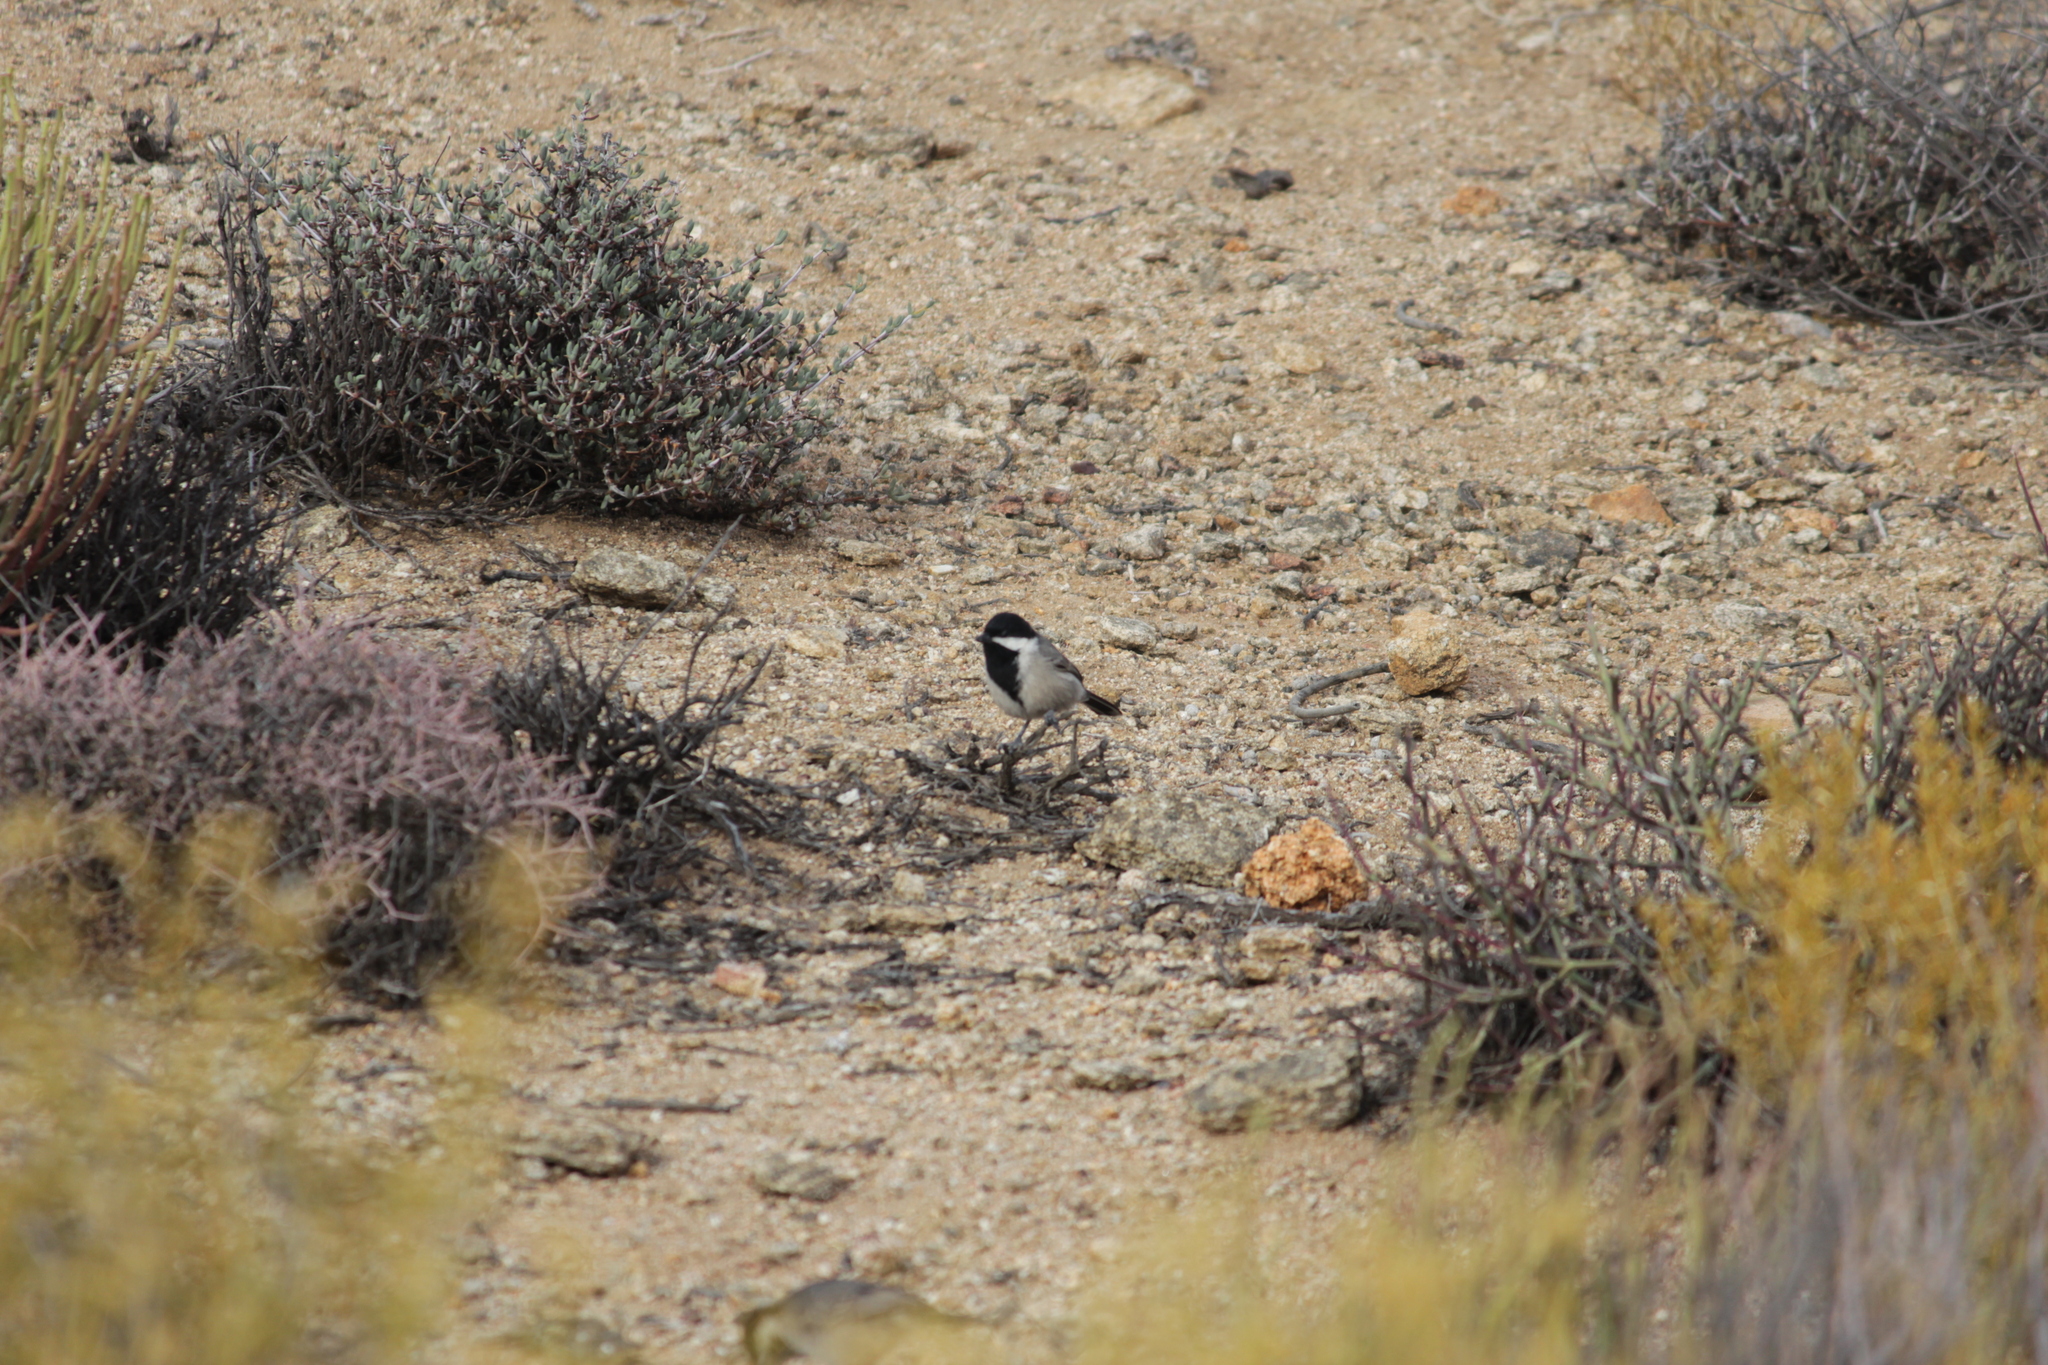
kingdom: Animalia
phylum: Chordata
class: Aves
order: Passeriformes
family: Paridae
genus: Parus
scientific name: Parus afer
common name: Grey tit
